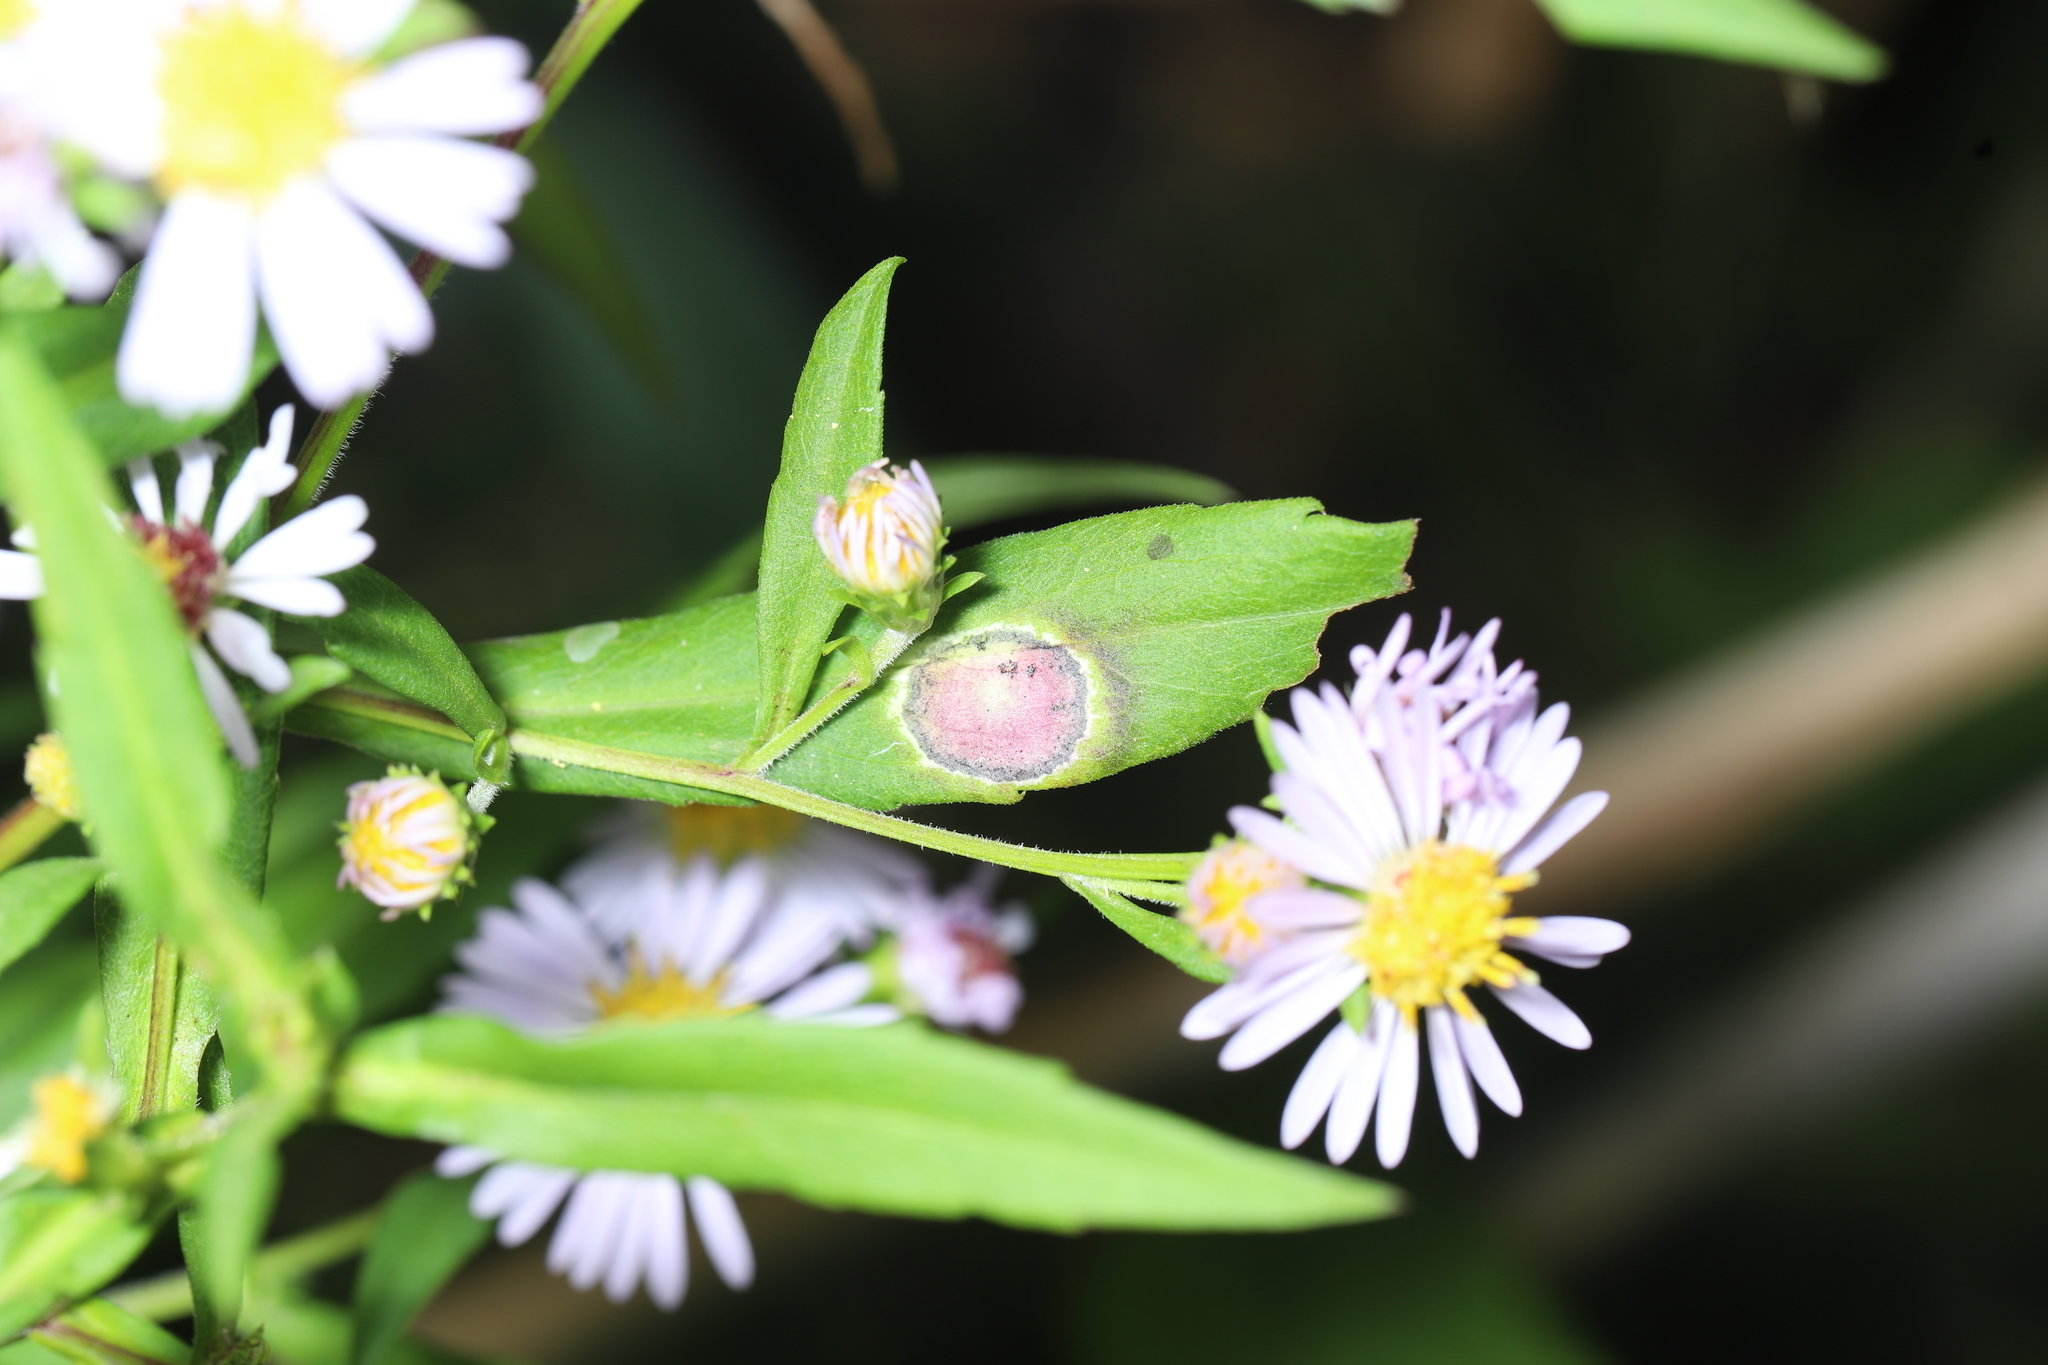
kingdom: Animalia
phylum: Arthropoda
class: Insecta
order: Diptera
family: Cecidomyiidae
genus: Asteromyia
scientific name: Asteromyia laeviana
